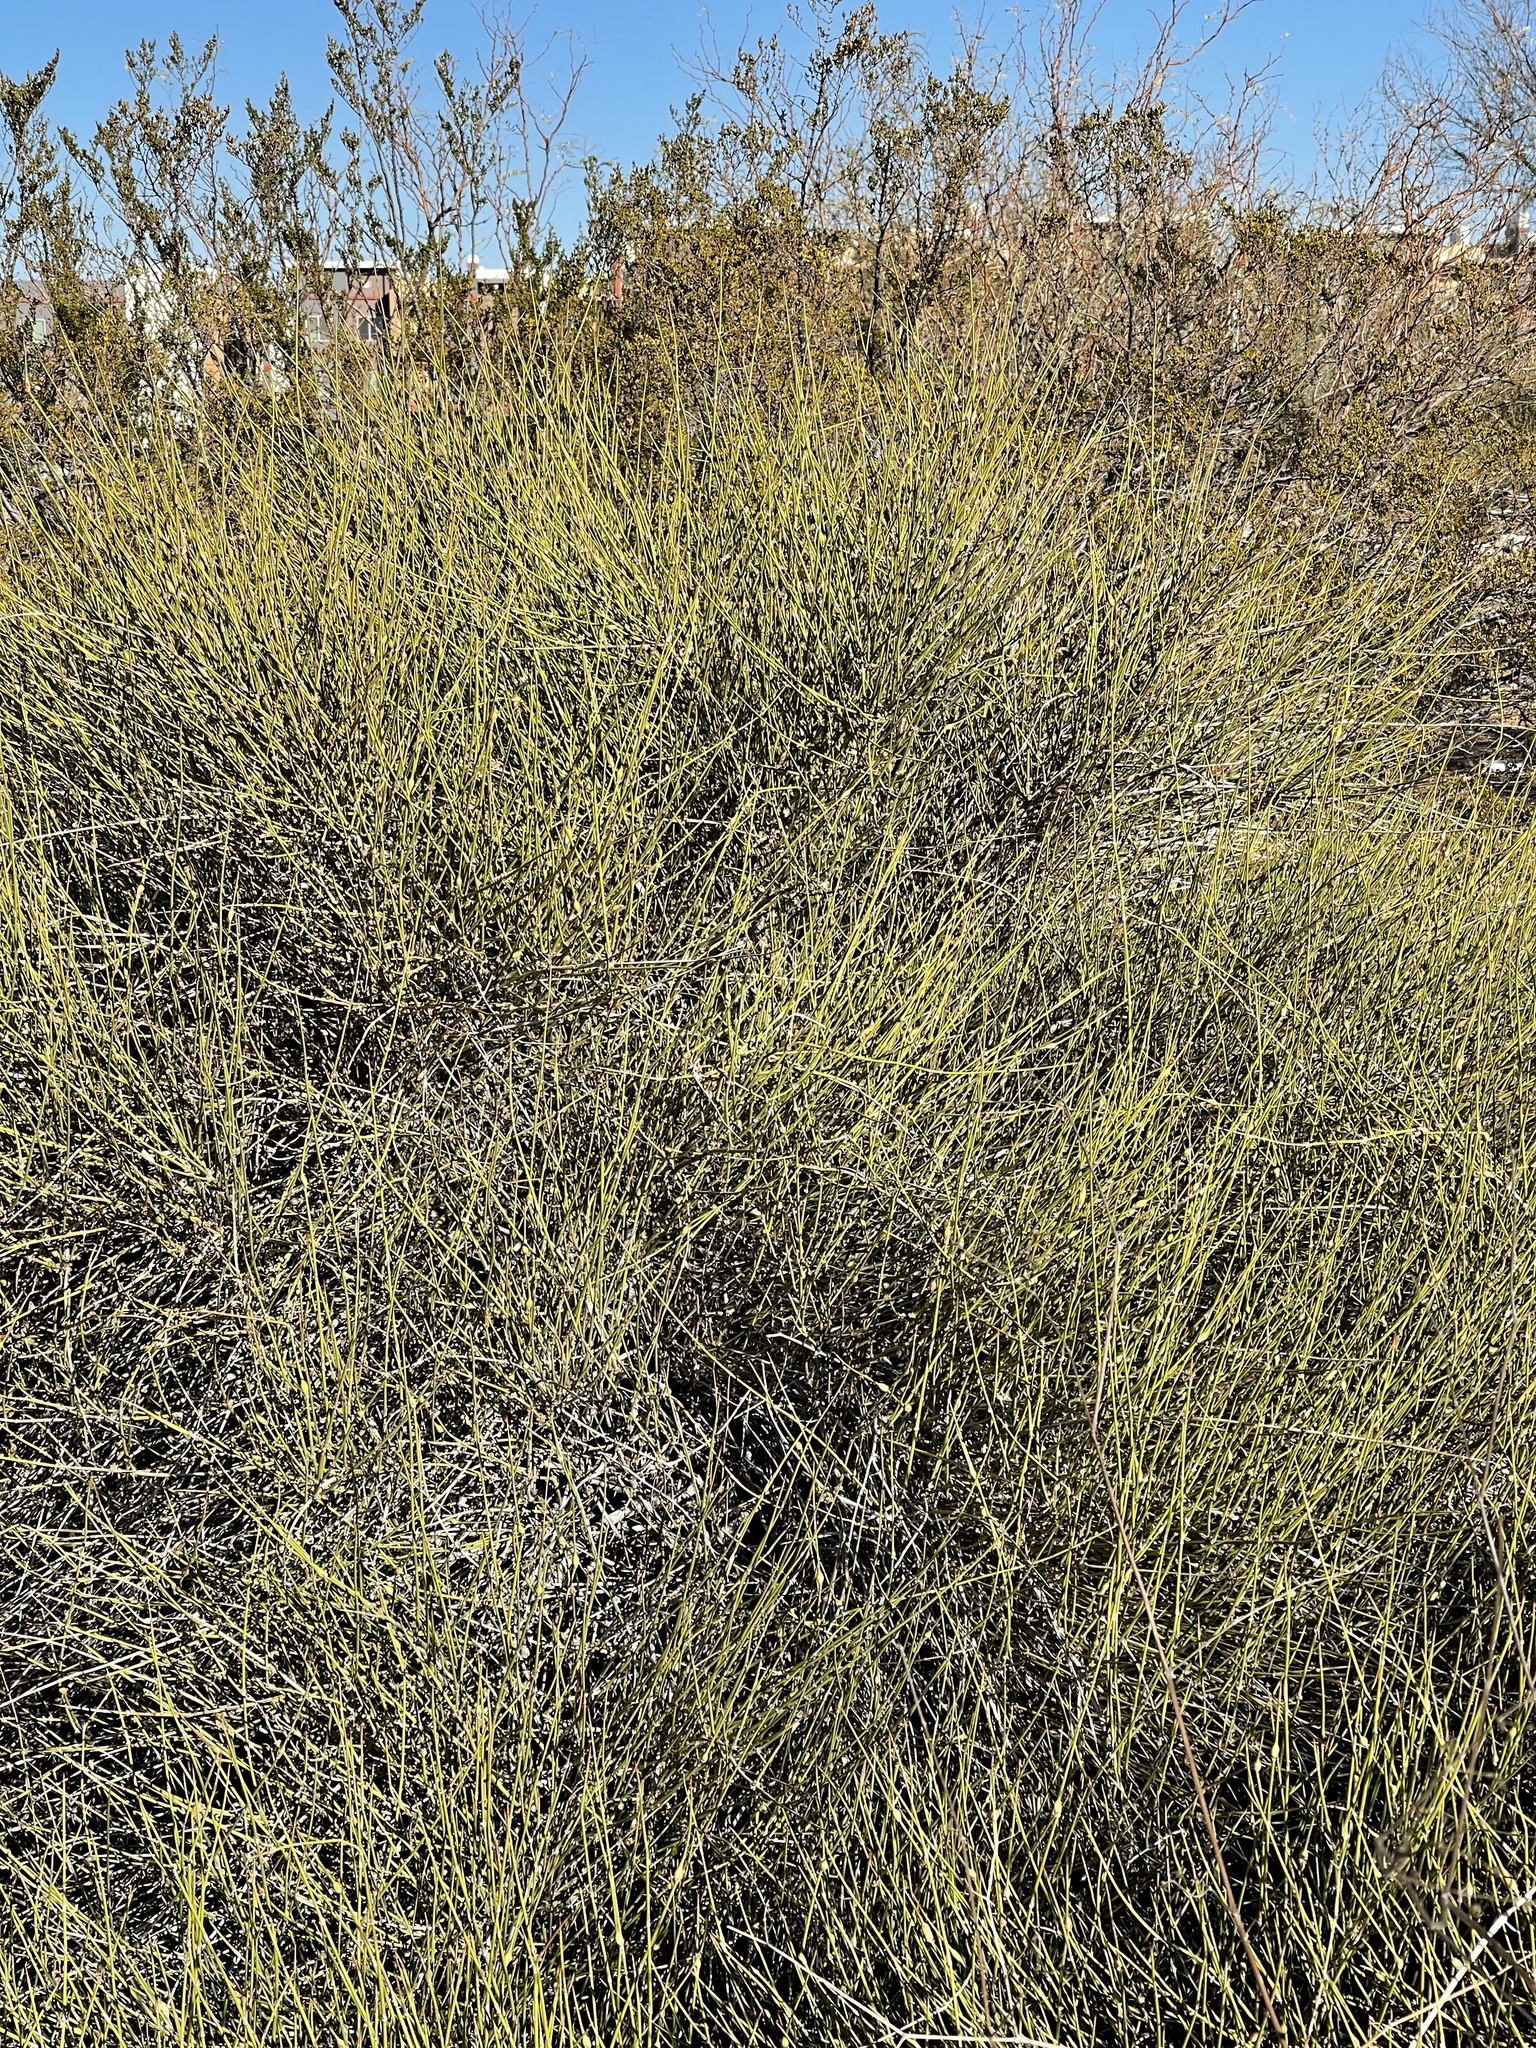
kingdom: Plantae
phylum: Tracheophyta
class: Gnetopsida
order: Ephedrales
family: Ephedraceae
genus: Ephedra
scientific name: Ephedra trifurca
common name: Mexican-tea
